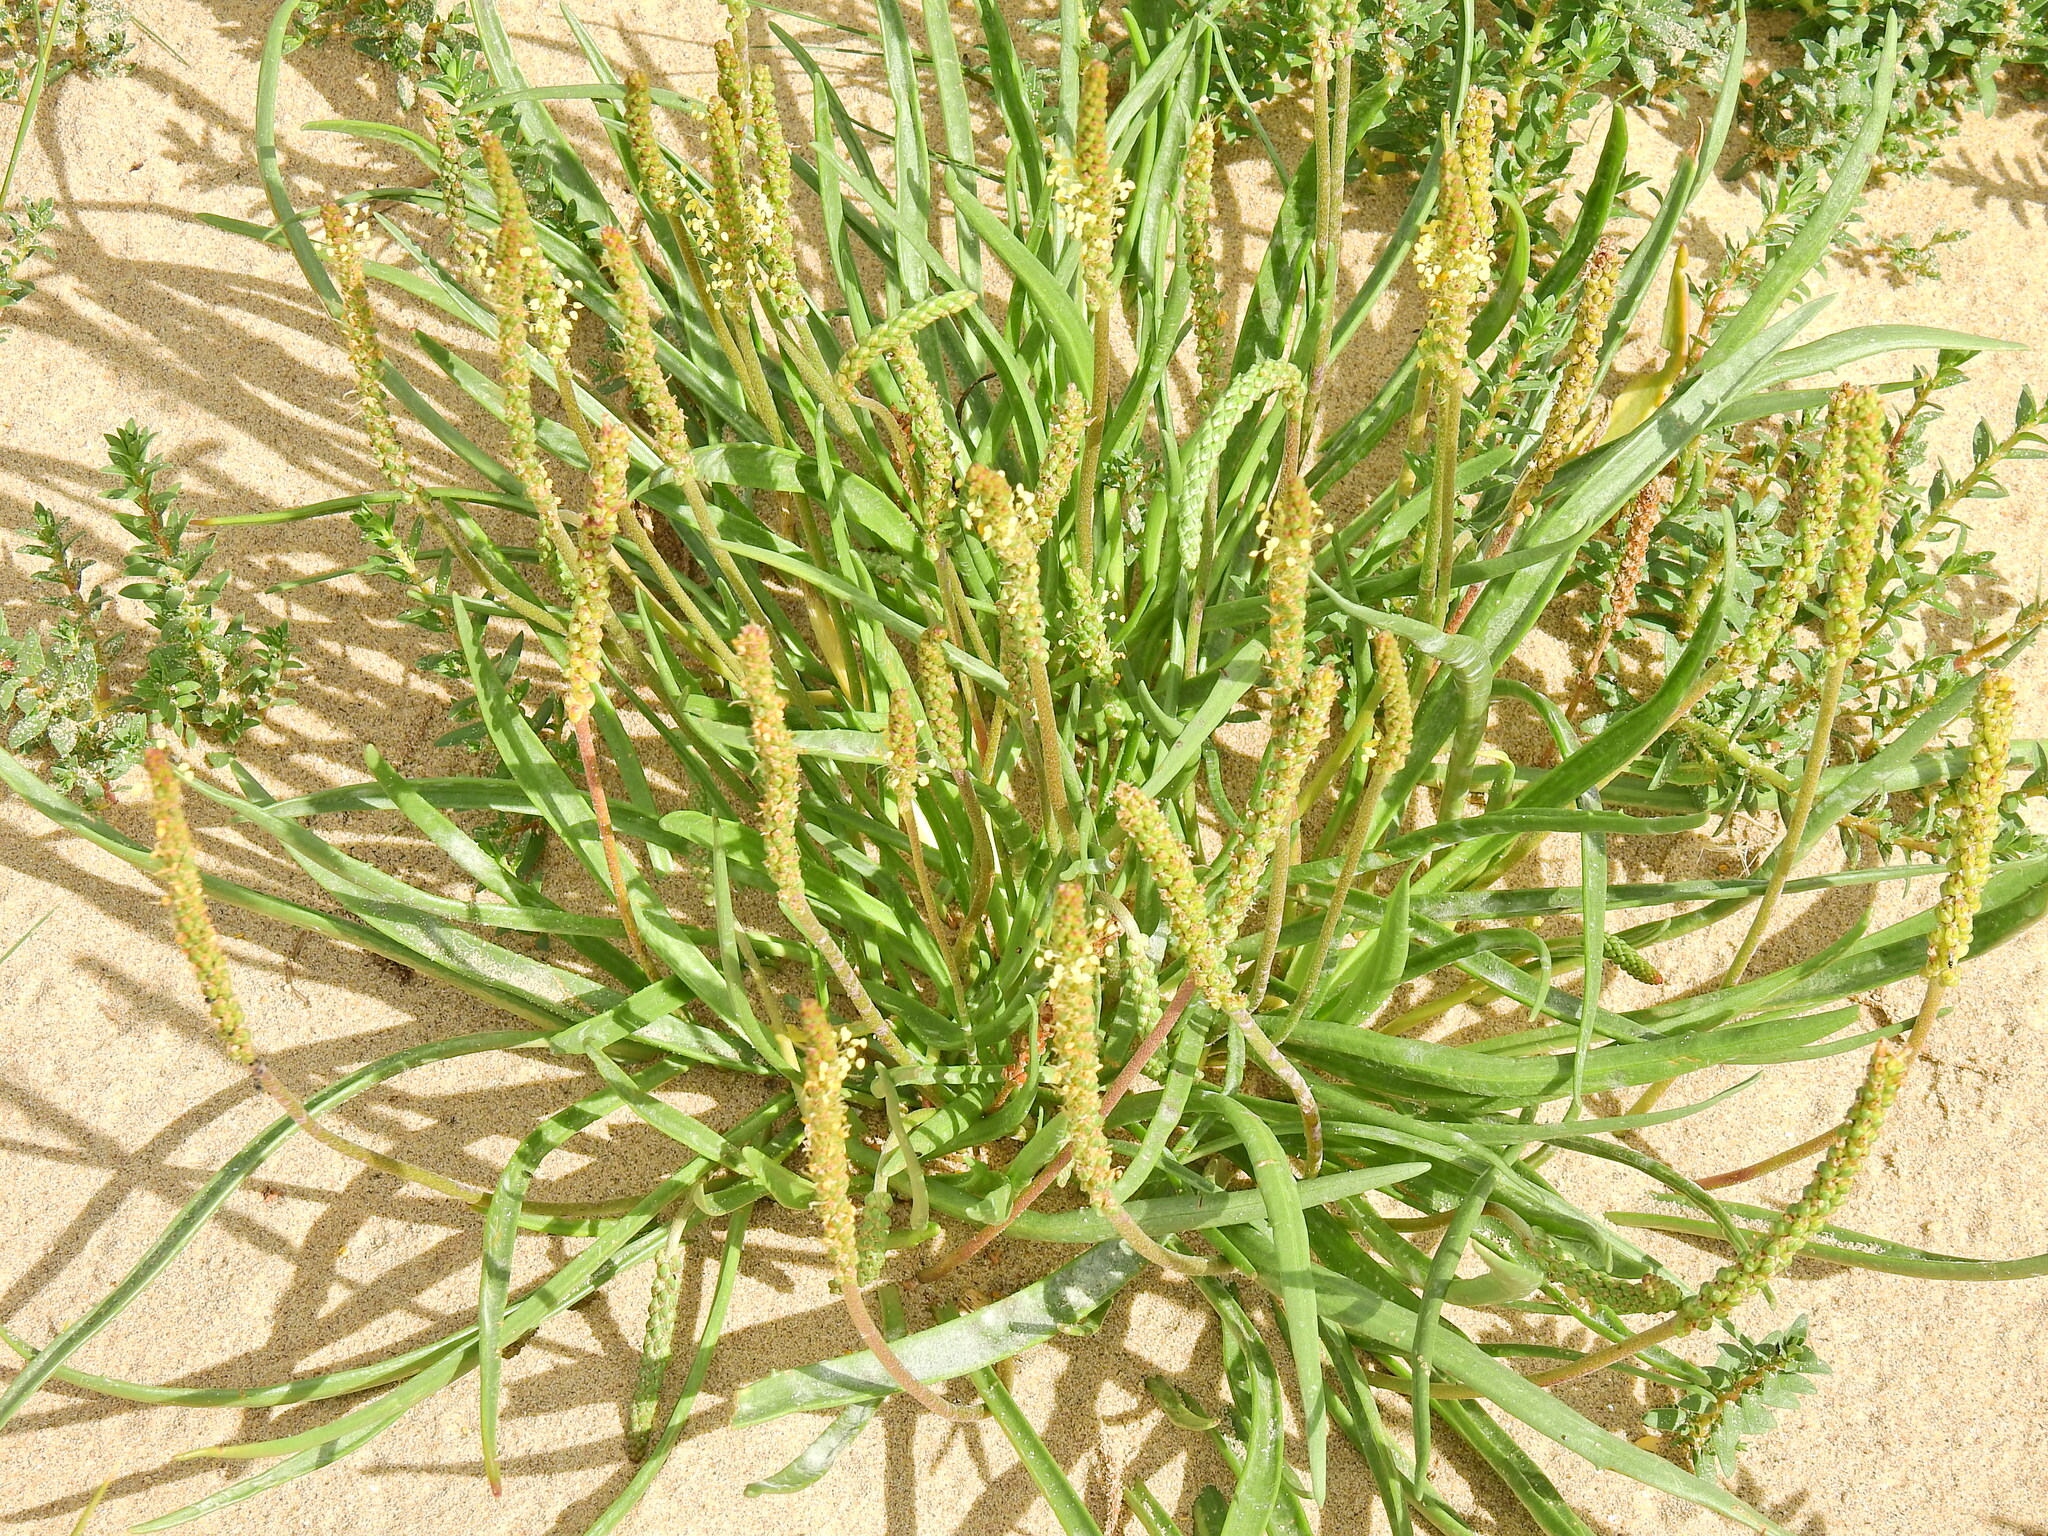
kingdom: Plantae
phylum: Tracheophyta
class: Magnoliopsida
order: Lamiales
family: Plantaginaceae
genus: Plantago
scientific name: Plantago maritima
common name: Sea plantain
